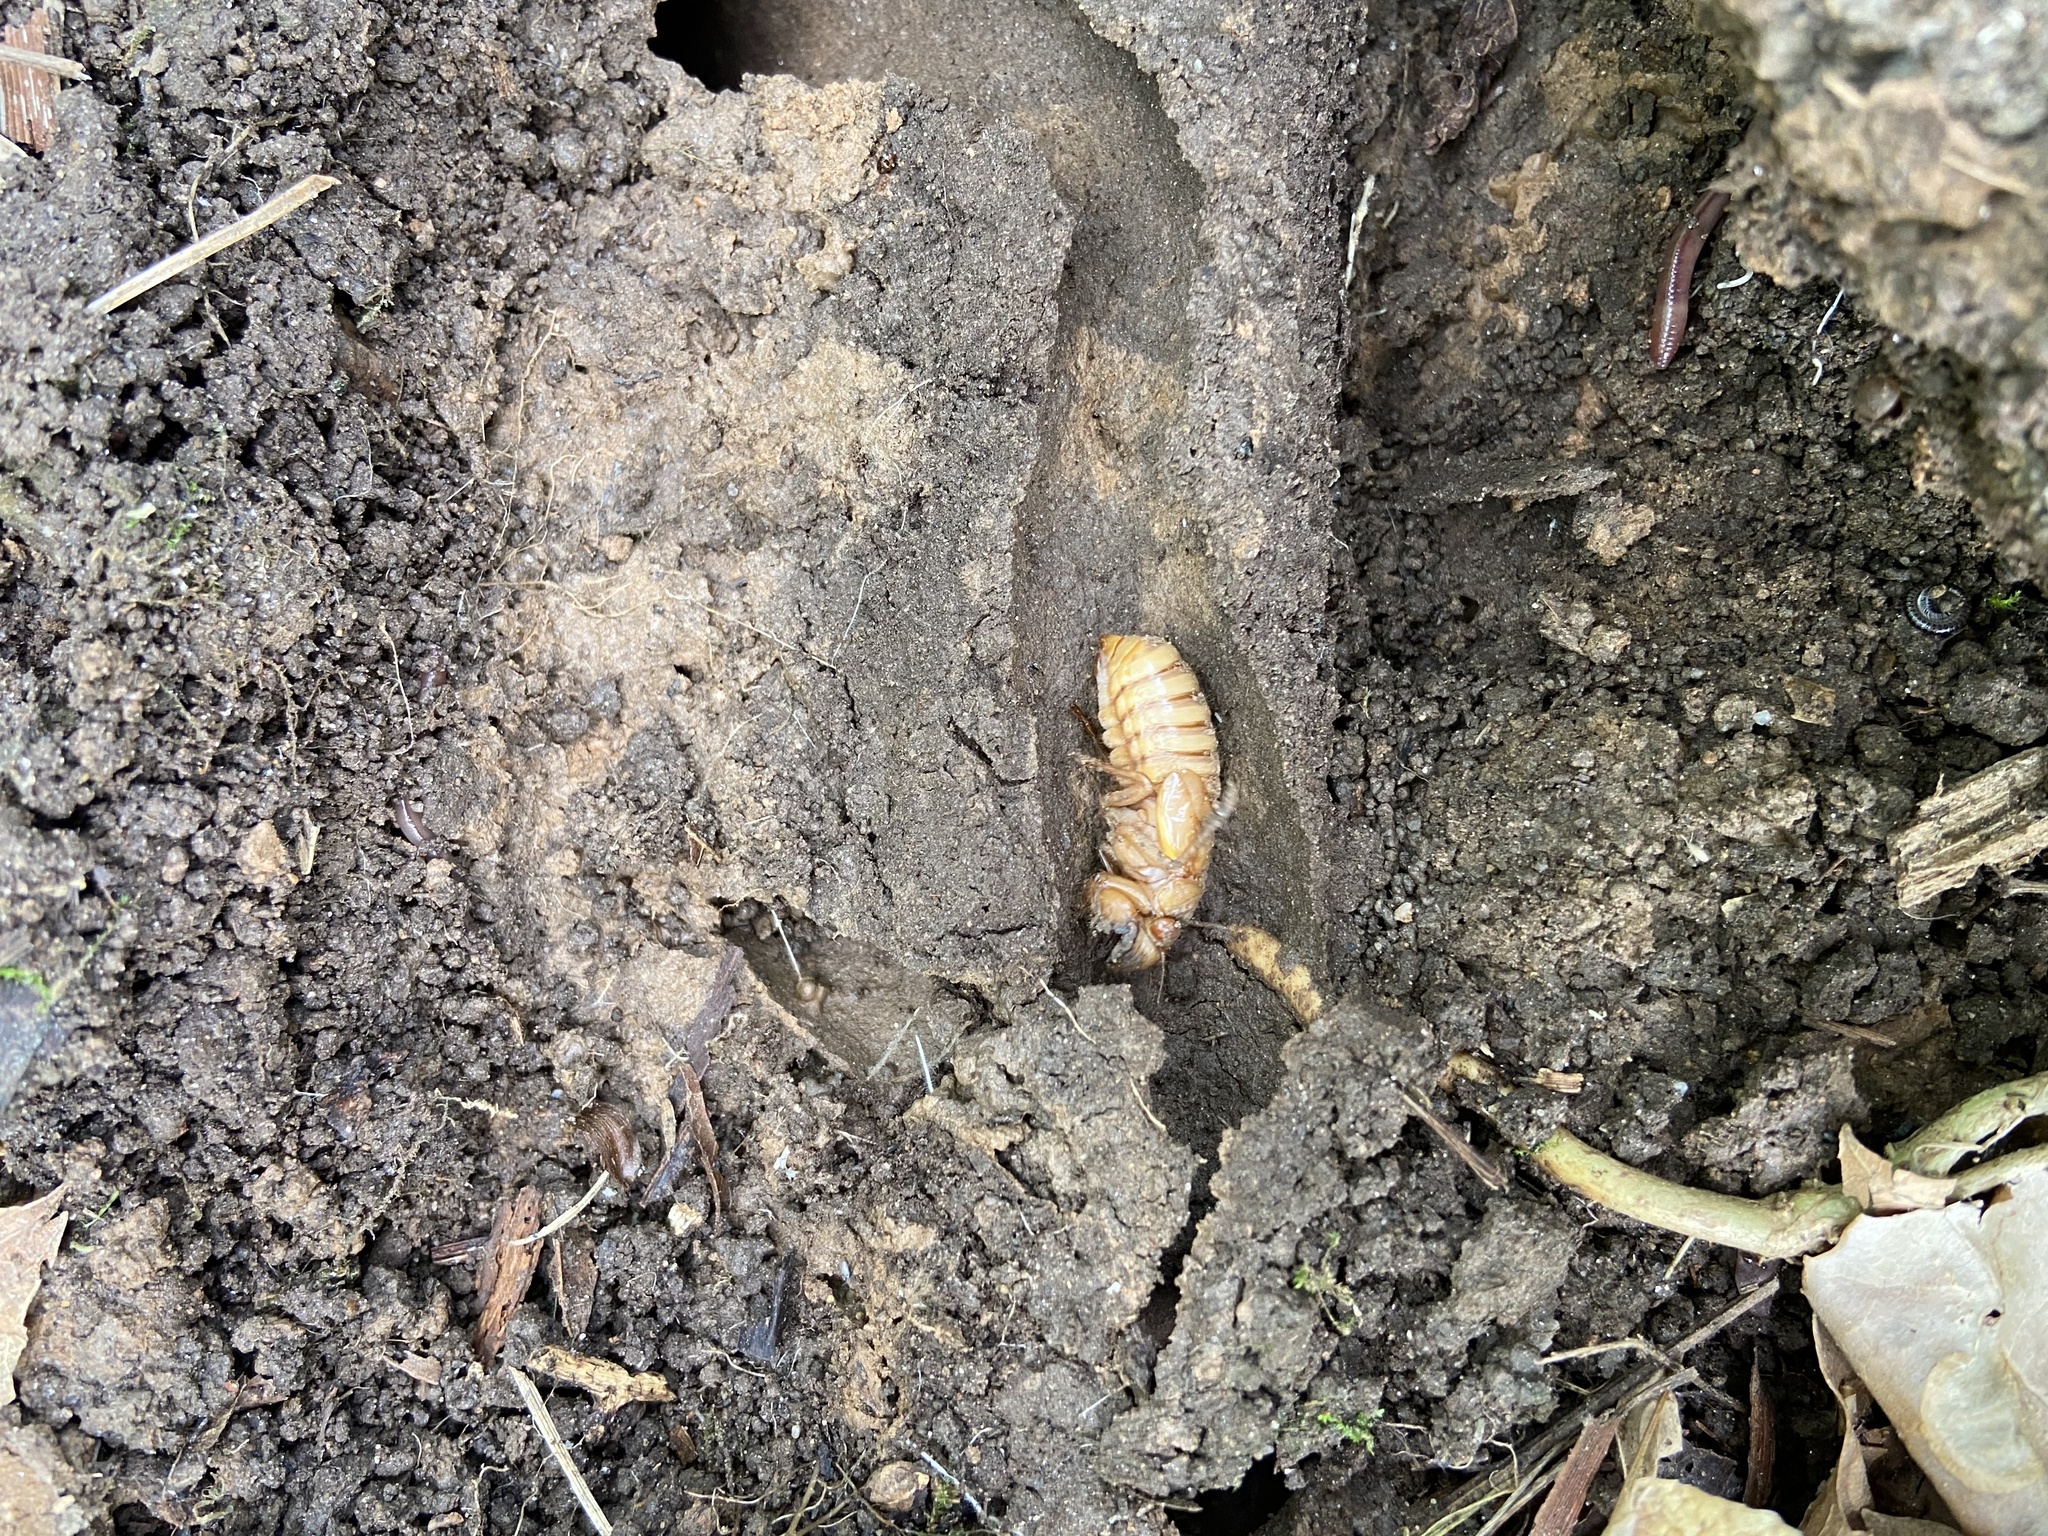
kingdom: Animalia
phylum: Arthropoda
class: Insecta
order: Hemiptera
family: Cicadidae
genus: Magicicada
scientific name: Magicicada
